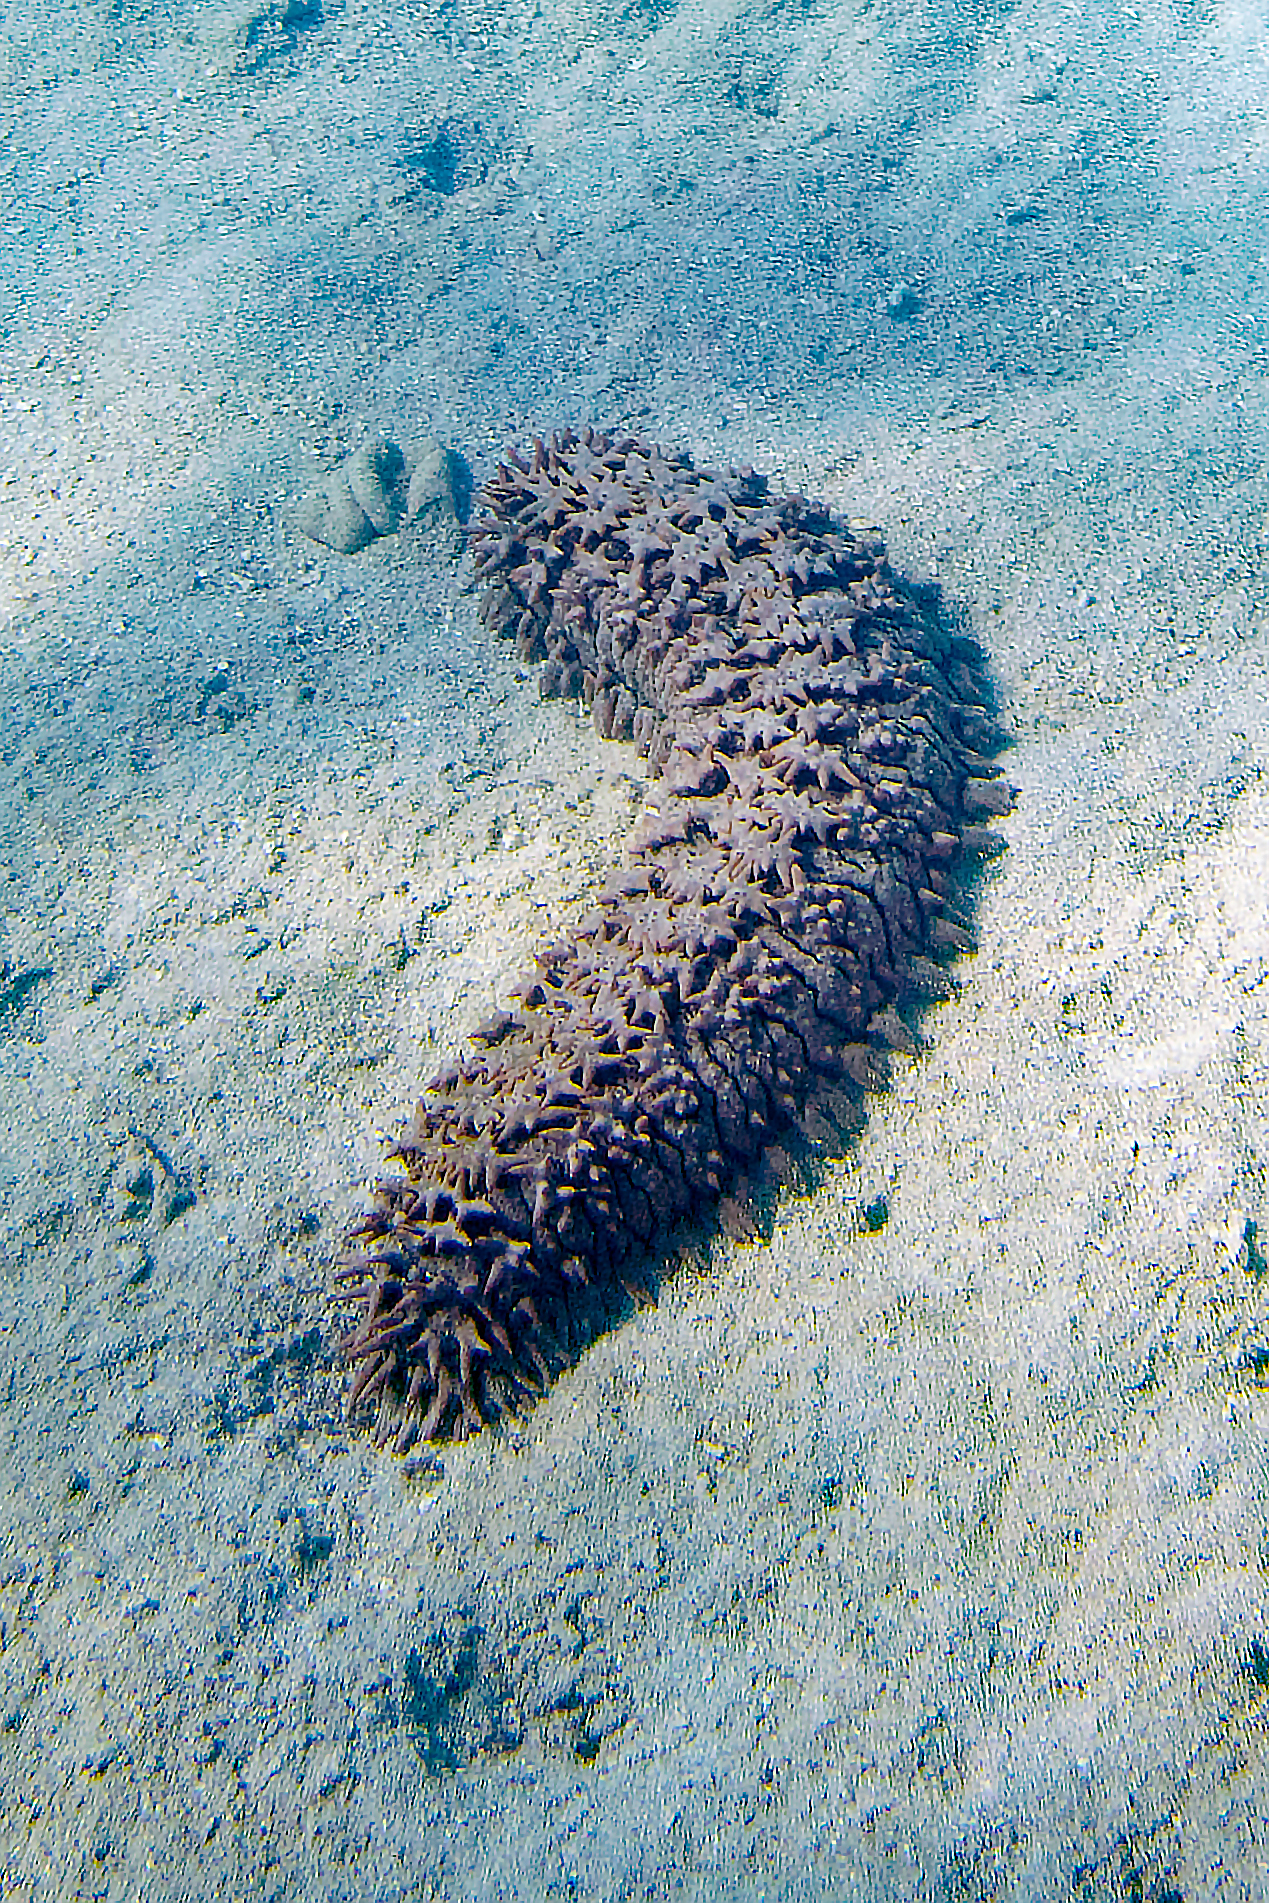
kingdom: Animalia
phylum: Echinodermata
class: Holothuroidea
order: Synallactida
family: Stichopodidae
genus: Thelenota
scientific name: Thelenota ananas
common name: Prickly redfish
